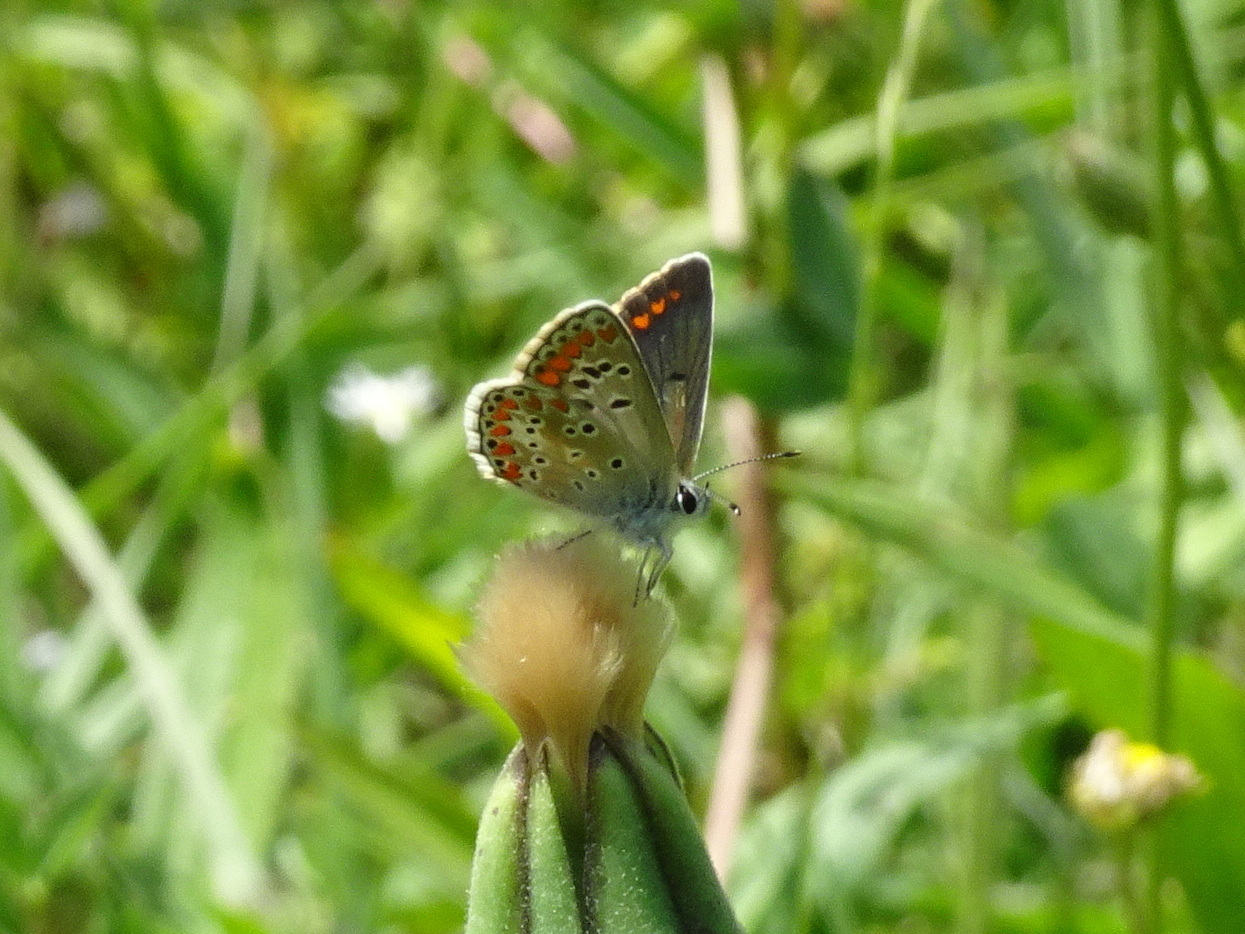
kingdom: Animalia
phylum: Arthropoda
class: Insecta
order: Lepidoptera
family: Lycaenidae
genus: Aricia
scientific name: Aricia agestis
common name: Brown argus
